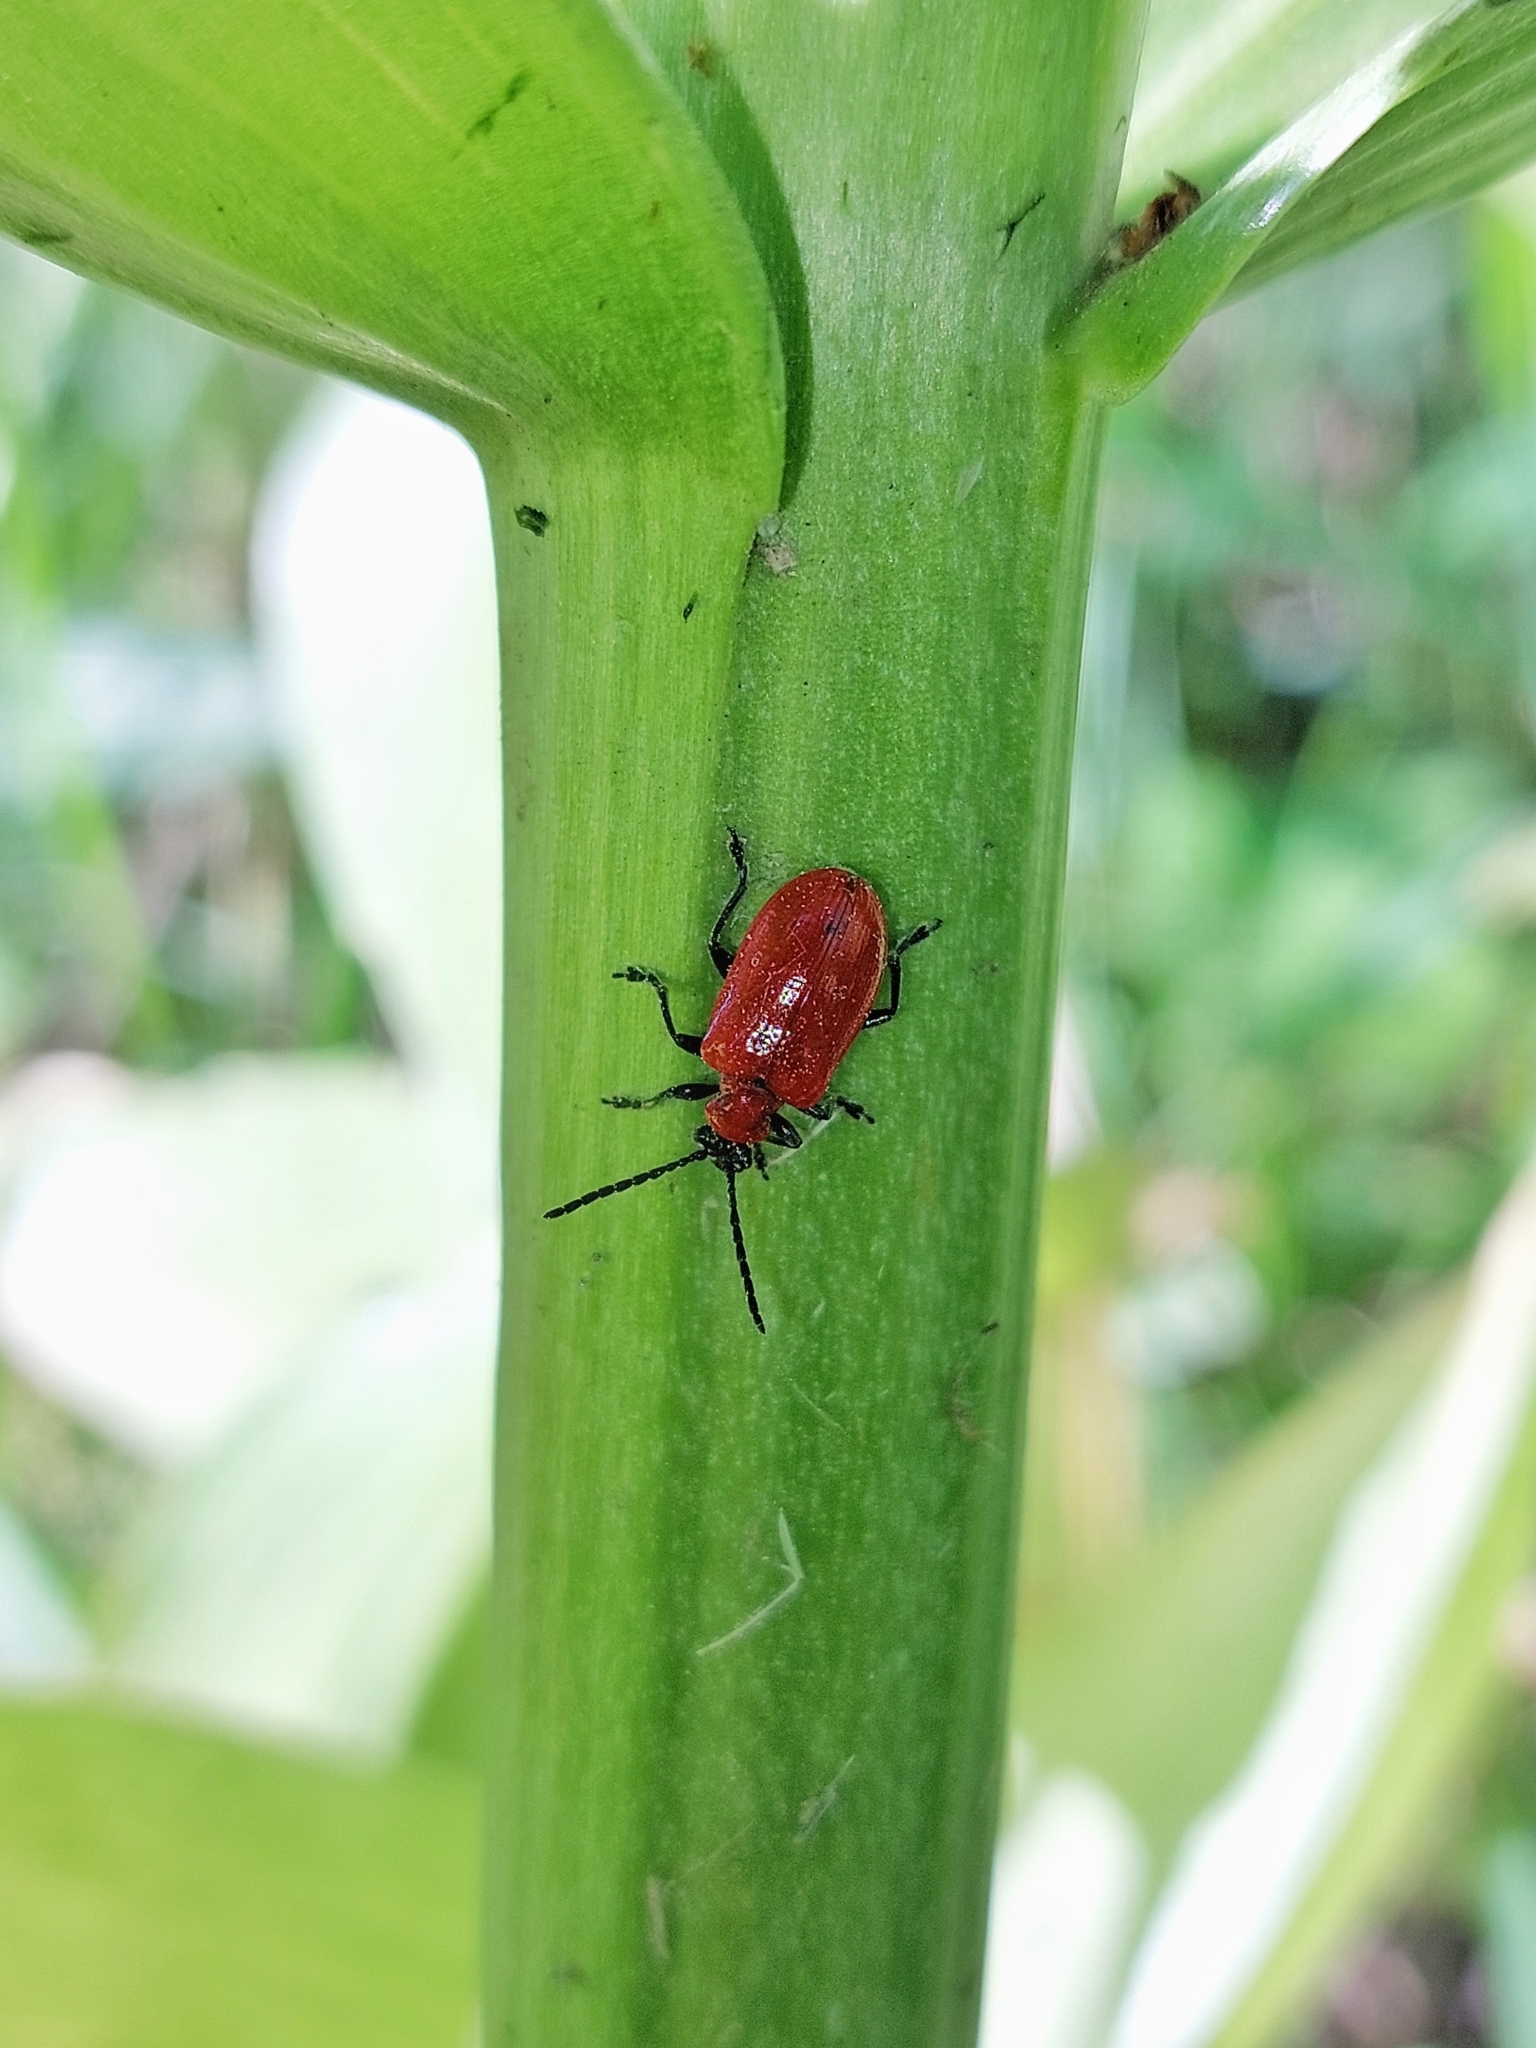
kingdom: Animalia
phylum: Arthropoda
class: Insecta
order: Coleoptera
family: Chrysomelidae
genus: Lilioceris
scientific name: Lilioceris lilii
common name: Lily beetle
